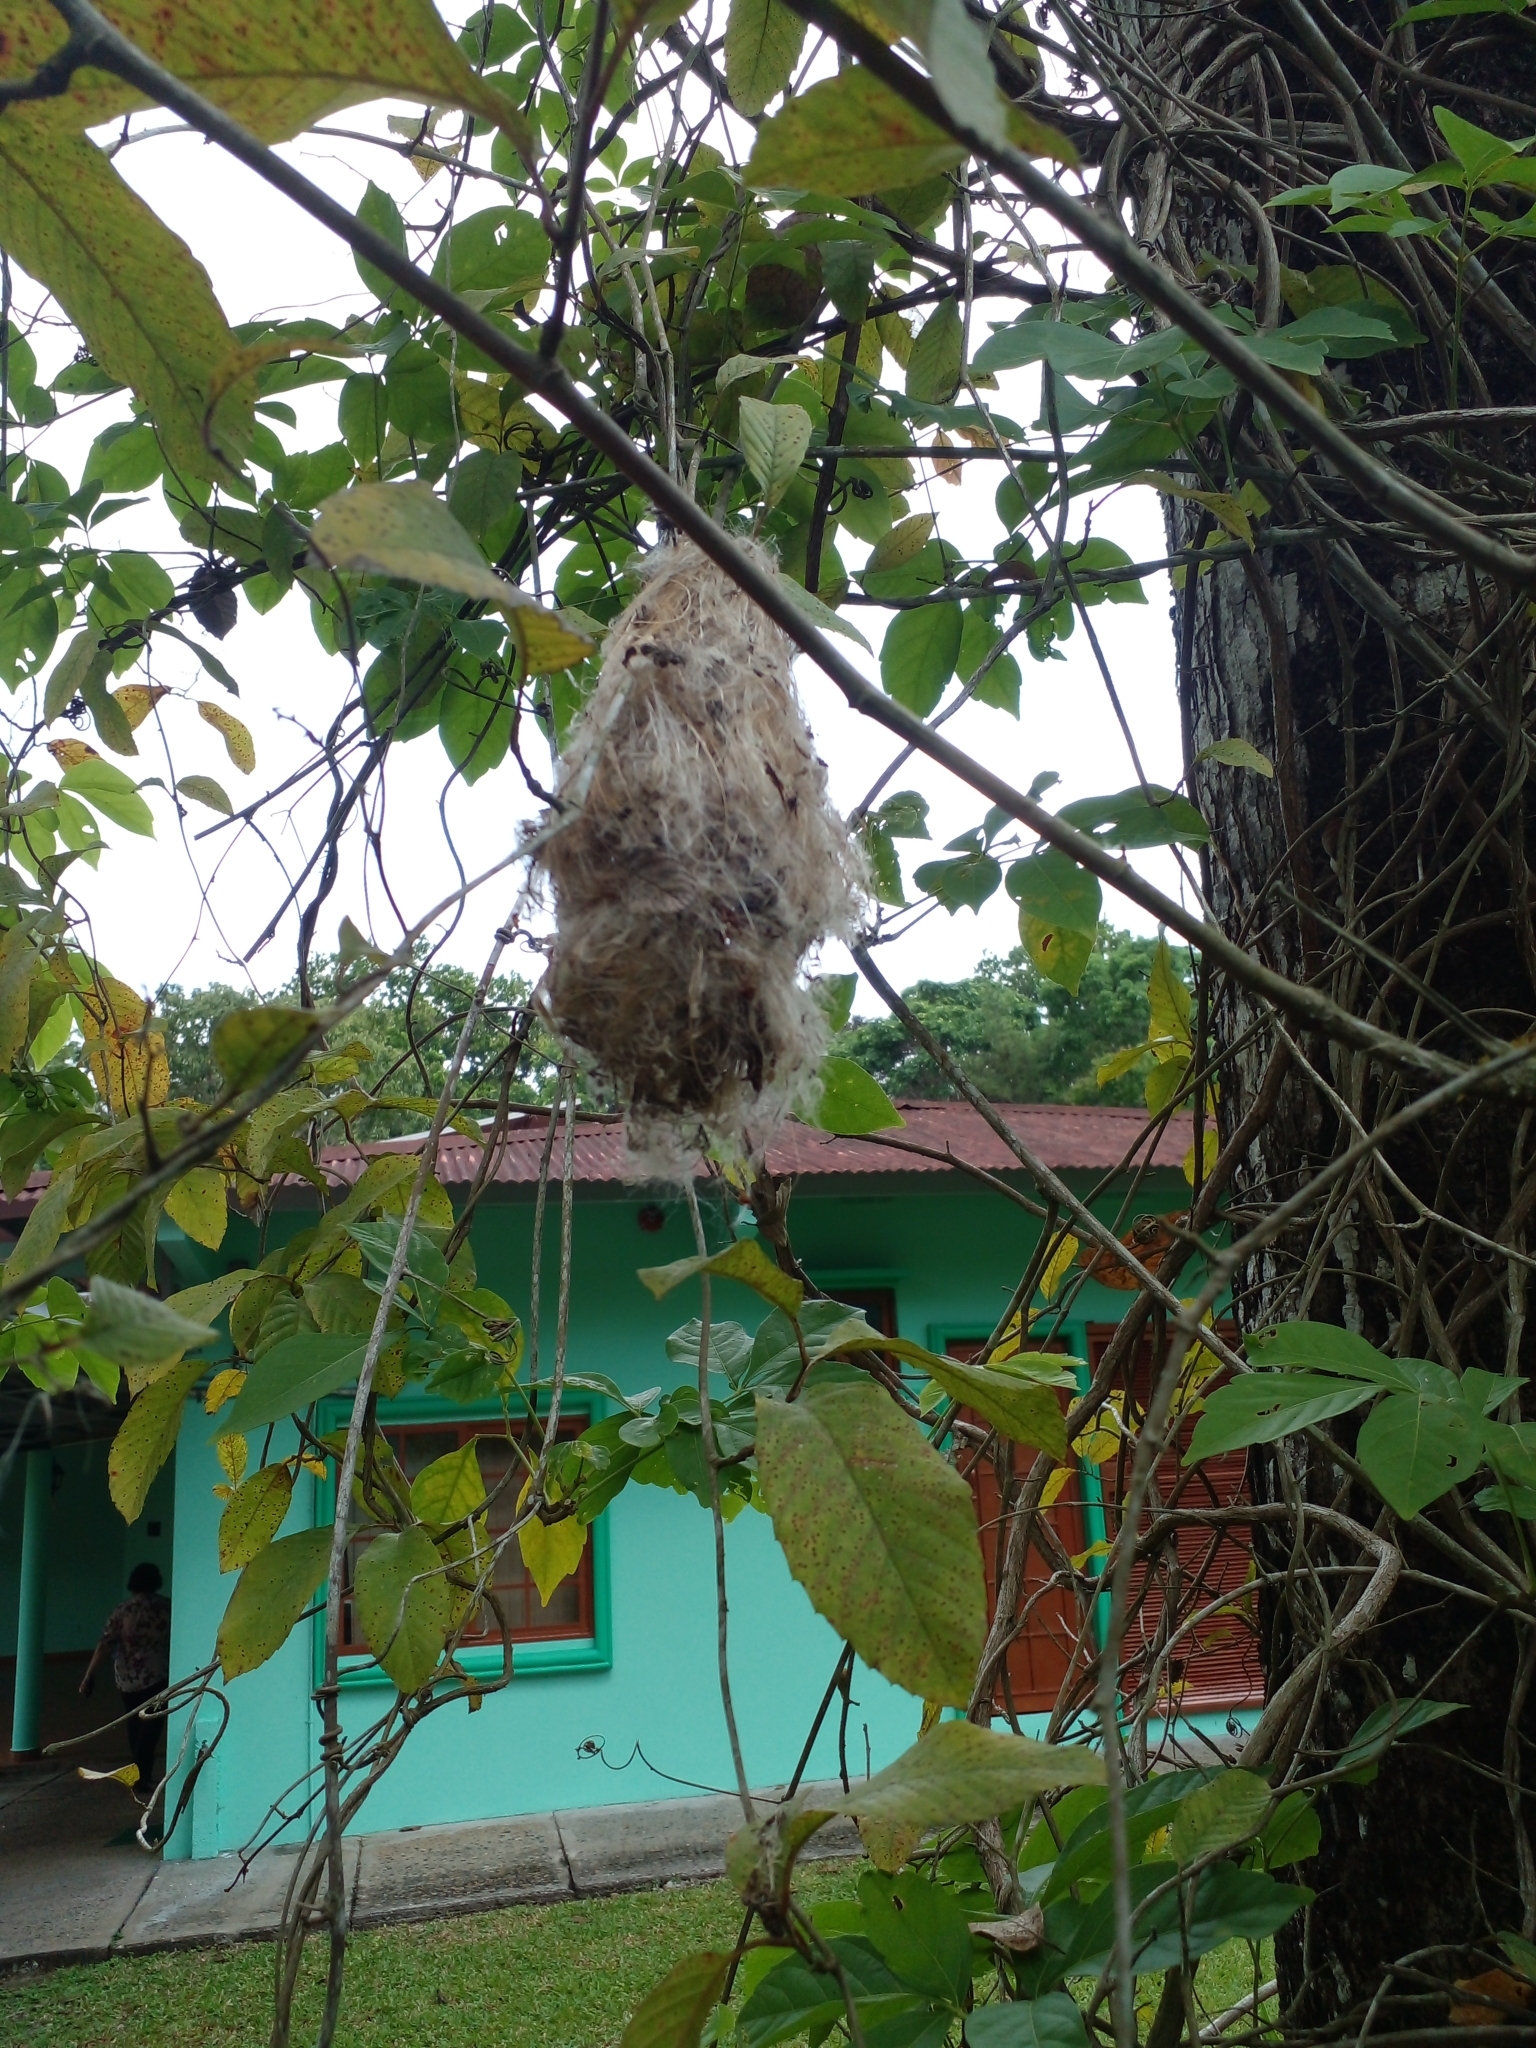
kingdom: Animalia
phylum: Chordata
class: Aves
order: Passeriformes
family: Tyrannidae
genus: Todirostrum
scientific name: Todirostrum cinereum
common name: Common tody-flycatcher
